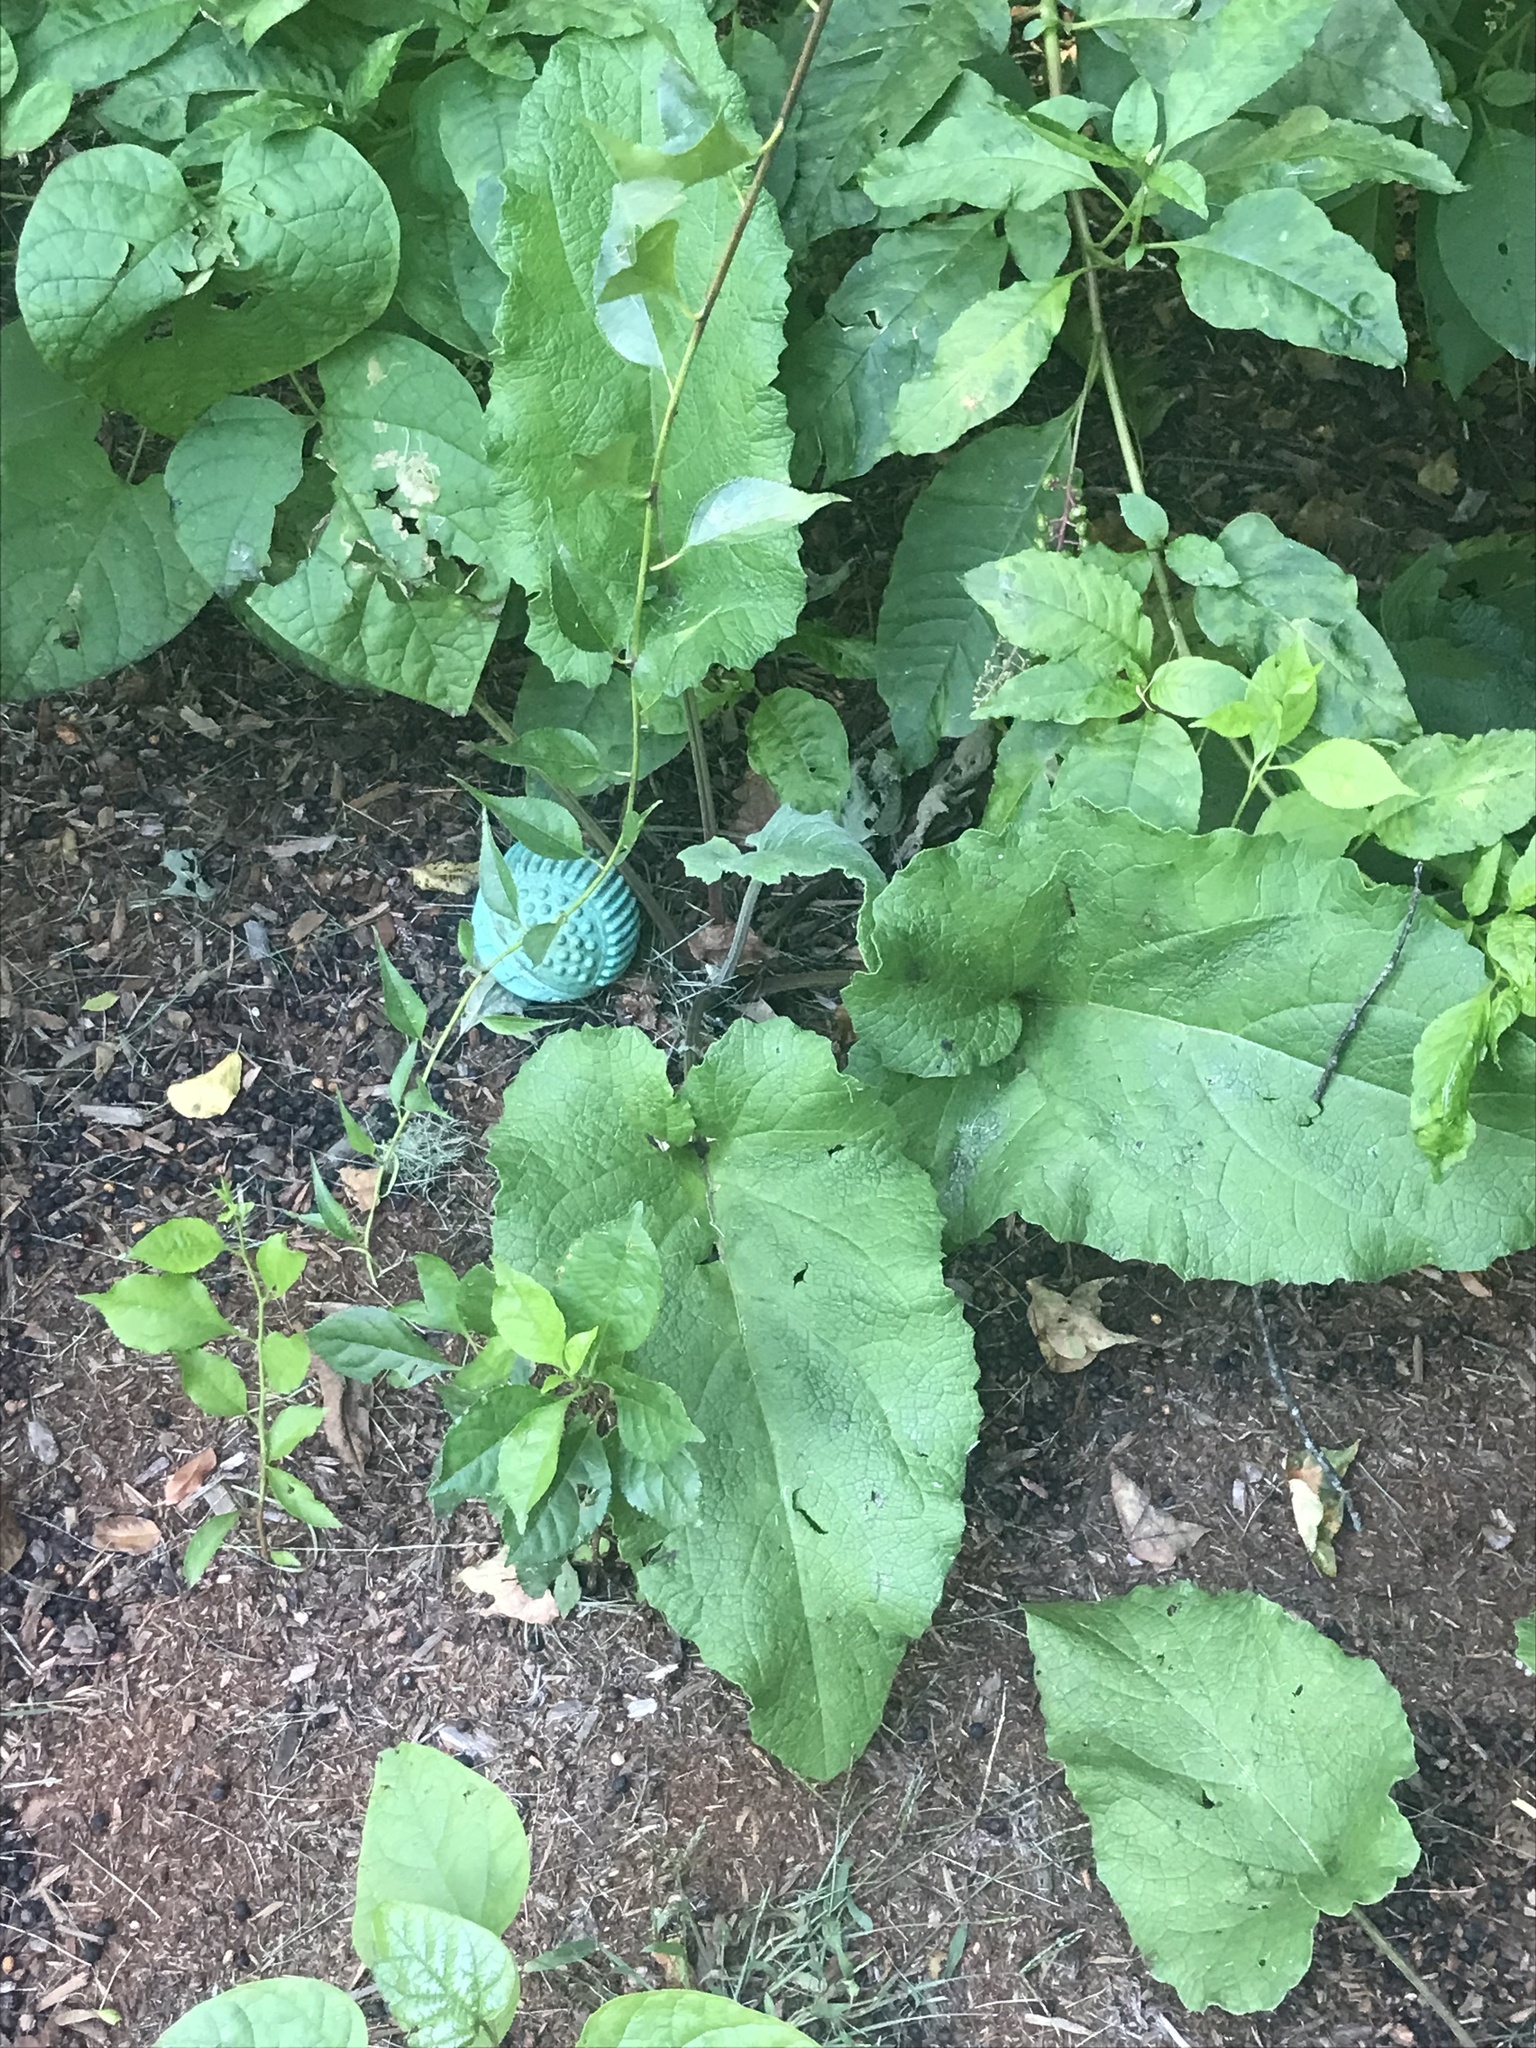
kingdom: Plantae
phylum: Tracheophyta
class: Magnoliopsida
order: Asterales
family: Asteraceae
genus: Arctium
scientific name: Arctium
